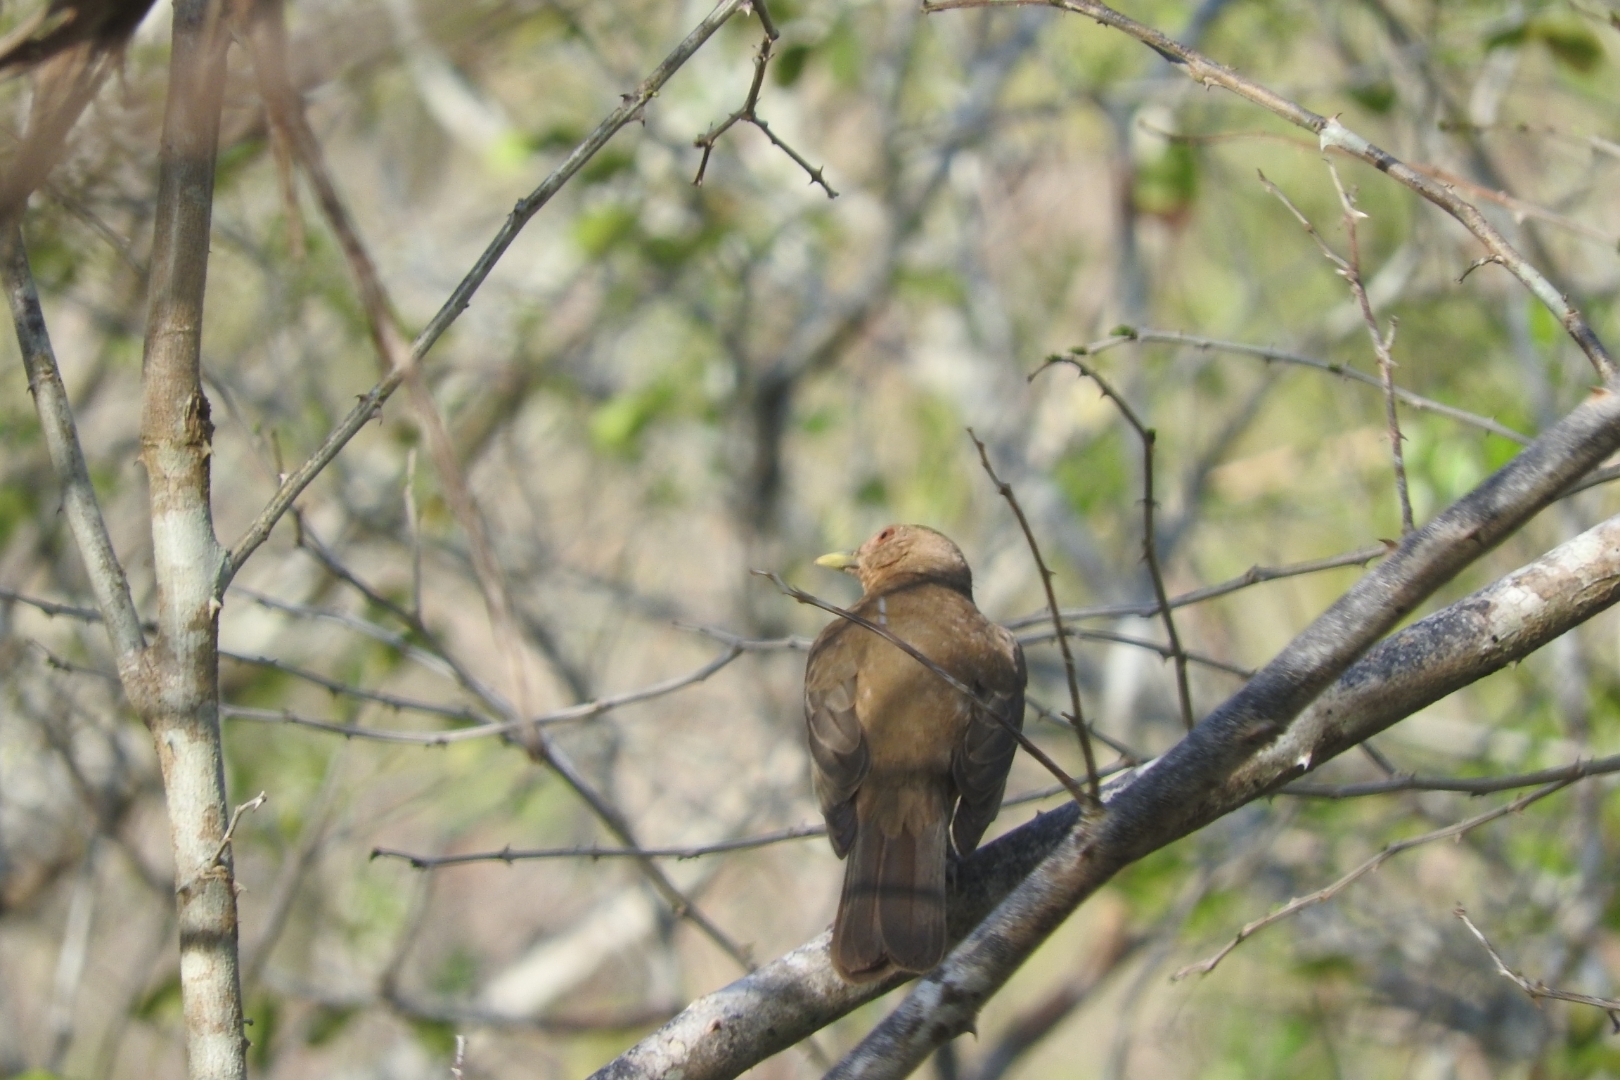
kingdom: Animalia
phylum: Chordata
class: Aves
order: Passeriformes
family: Turdidae
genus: Turdus
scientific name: Turdus grayi
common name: Clay-colored thrush
